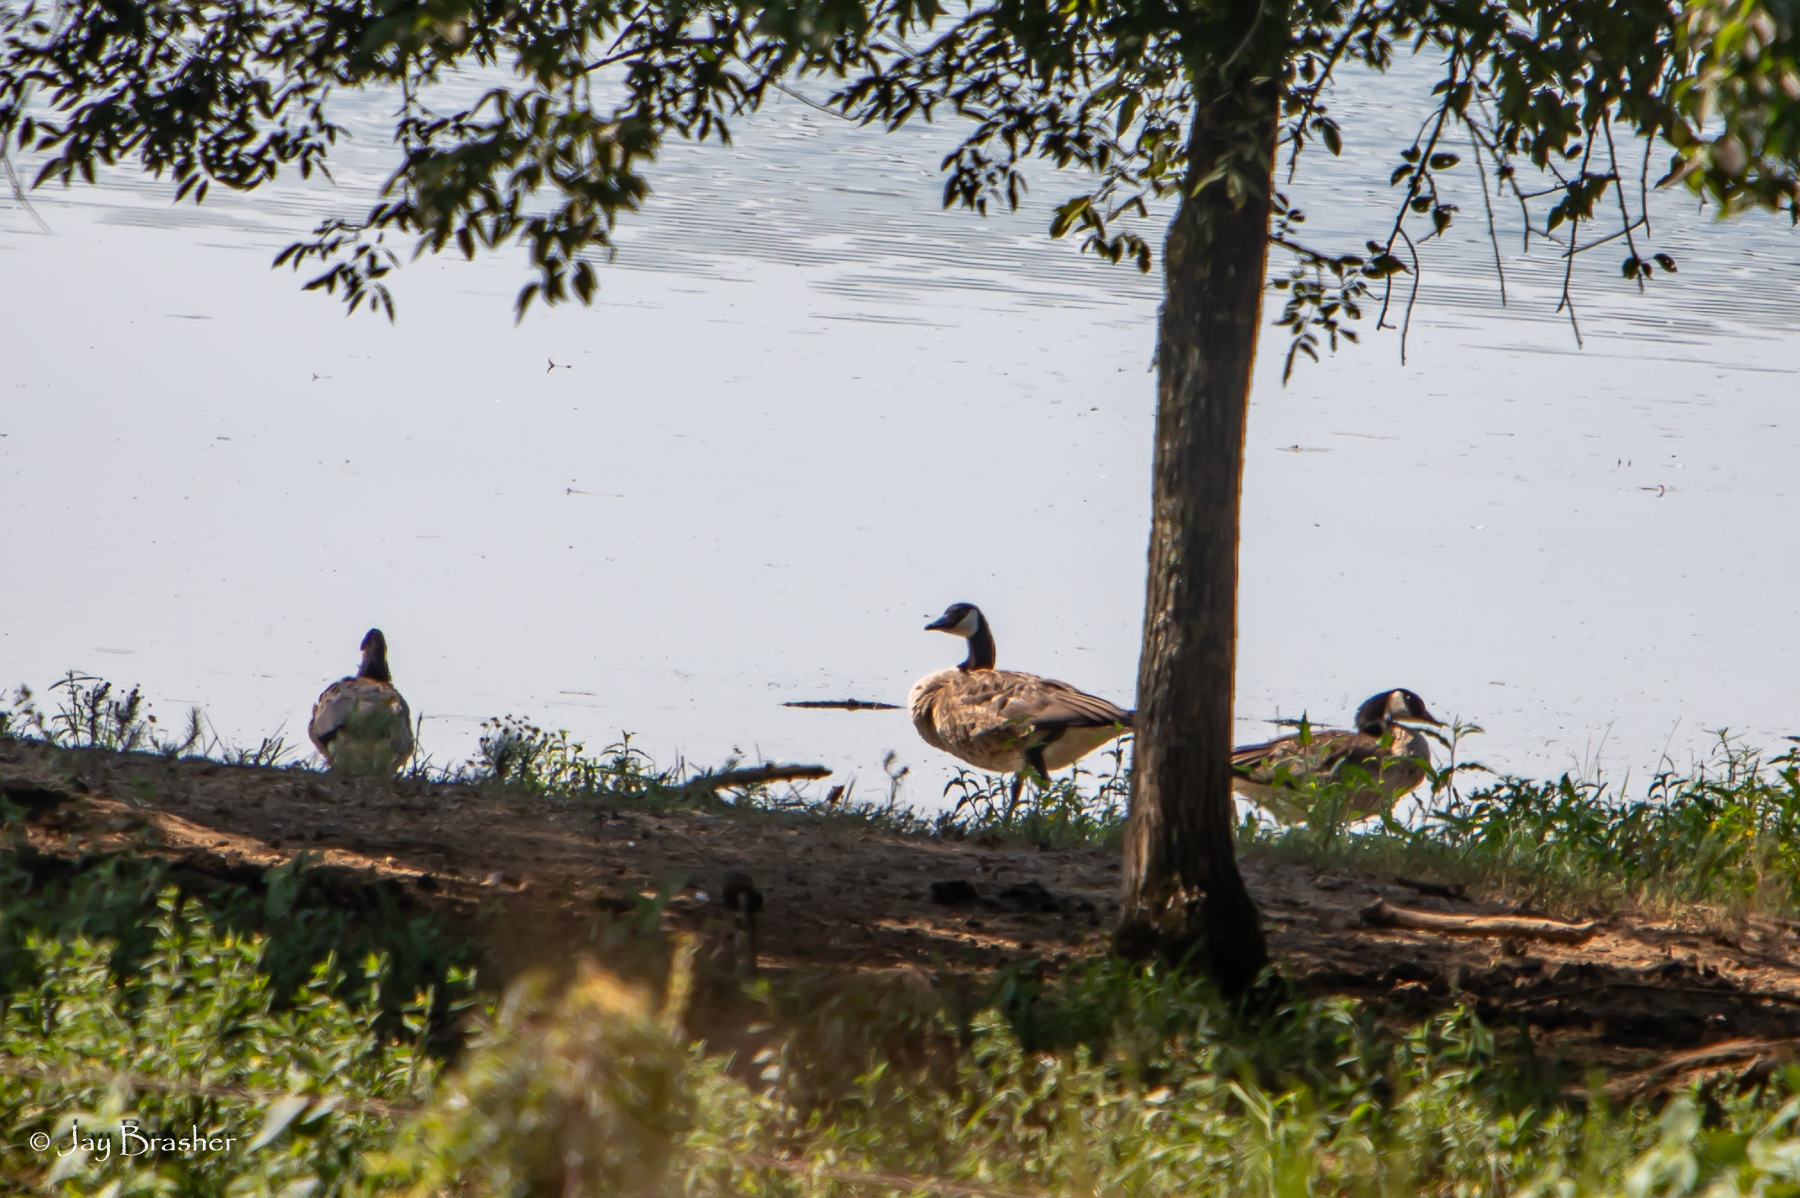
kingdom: Animalia
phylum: Chordata
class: Aves
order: Anseriformes
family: Anatidae
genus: Branta
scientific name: Branta canadensis
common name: Canada goose
